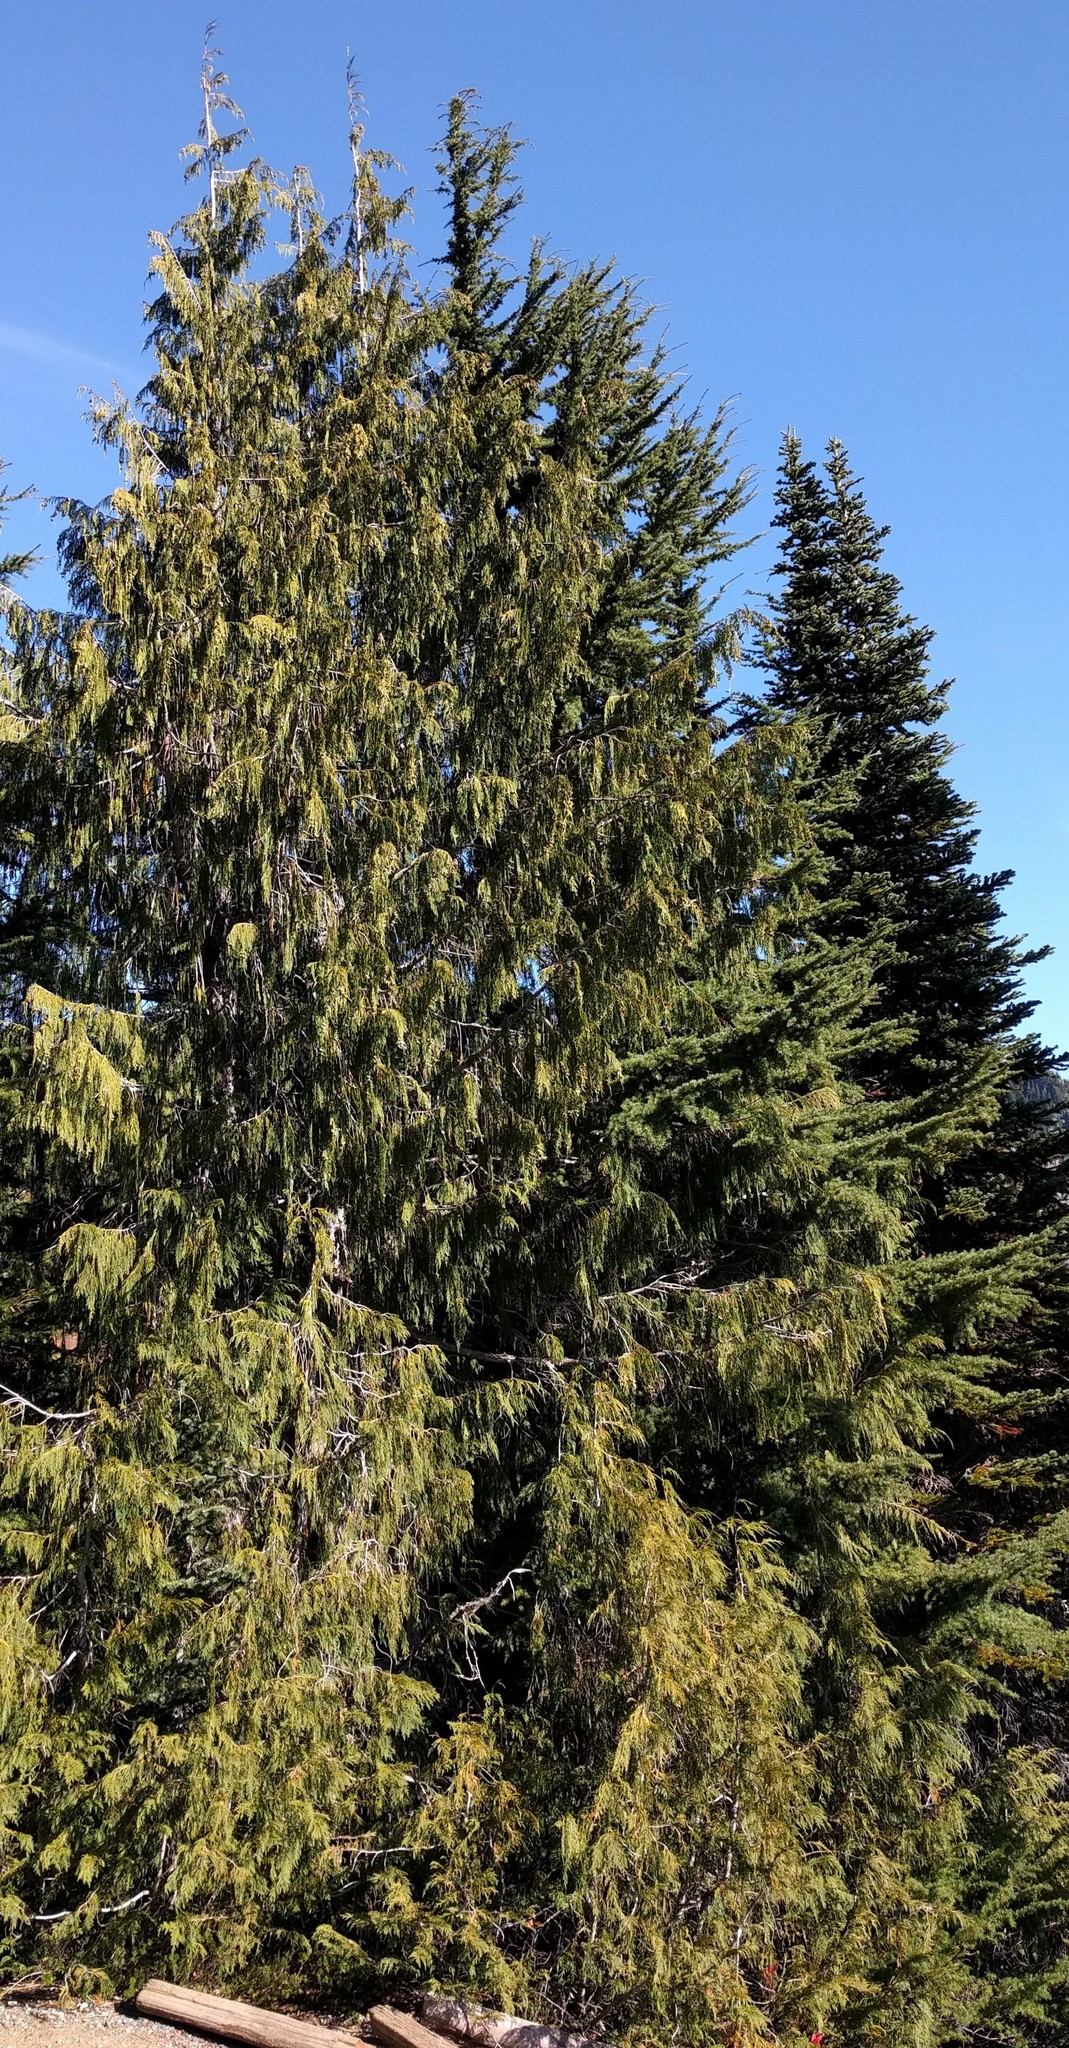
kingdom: Plantae
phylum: Tracheophyta
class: Pinopsida
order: Pinales
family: Cupressaceae
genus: Xanthocyparis
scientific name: Xanthocyparis nootkatensis
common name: Nootka cypress
